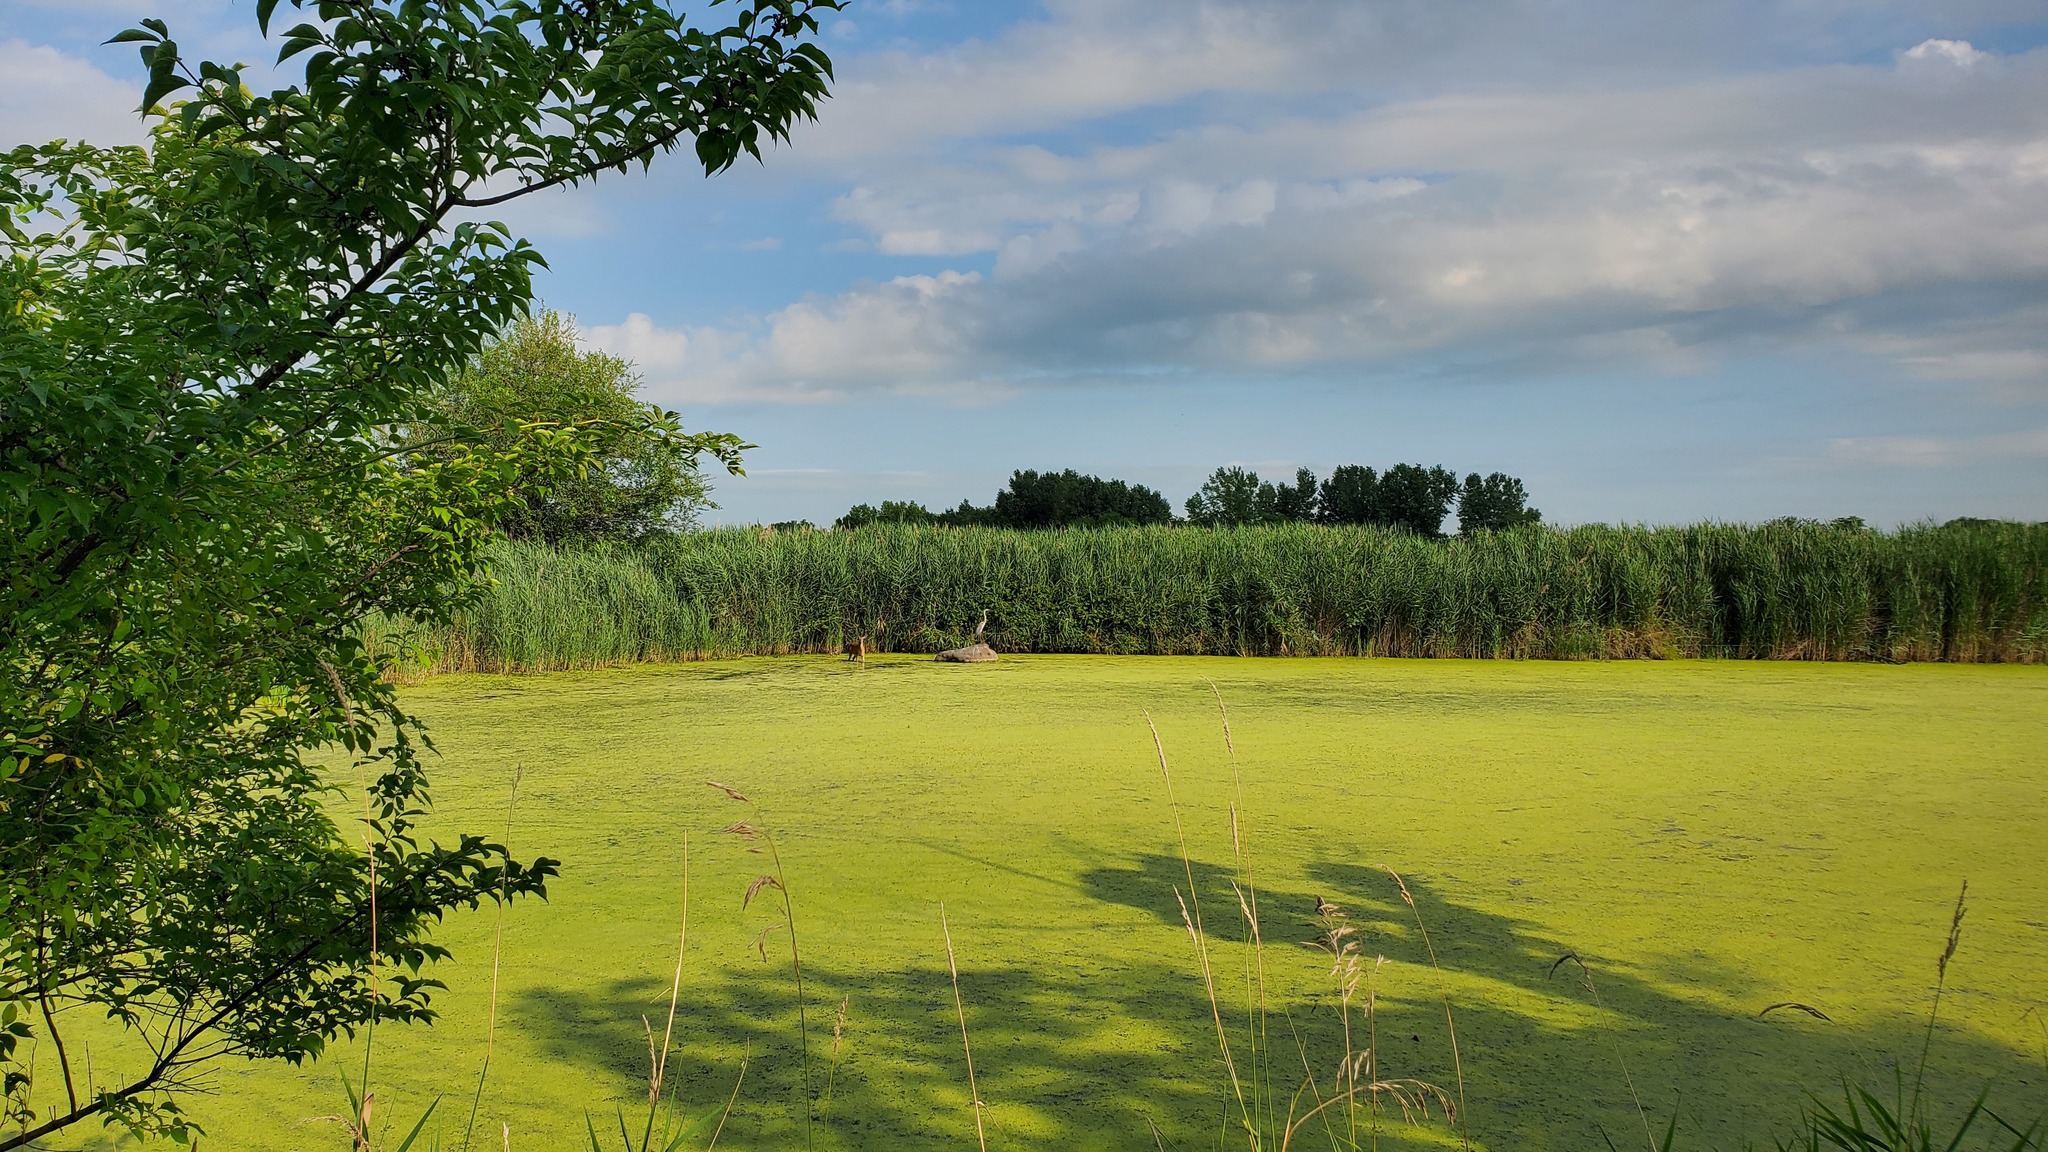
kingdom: Animalia
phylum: Chordata
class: Aves
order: Pelecaniformes
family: Ardeidae
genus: Ardea
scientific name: Ardea herodias
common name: Great blue heron
